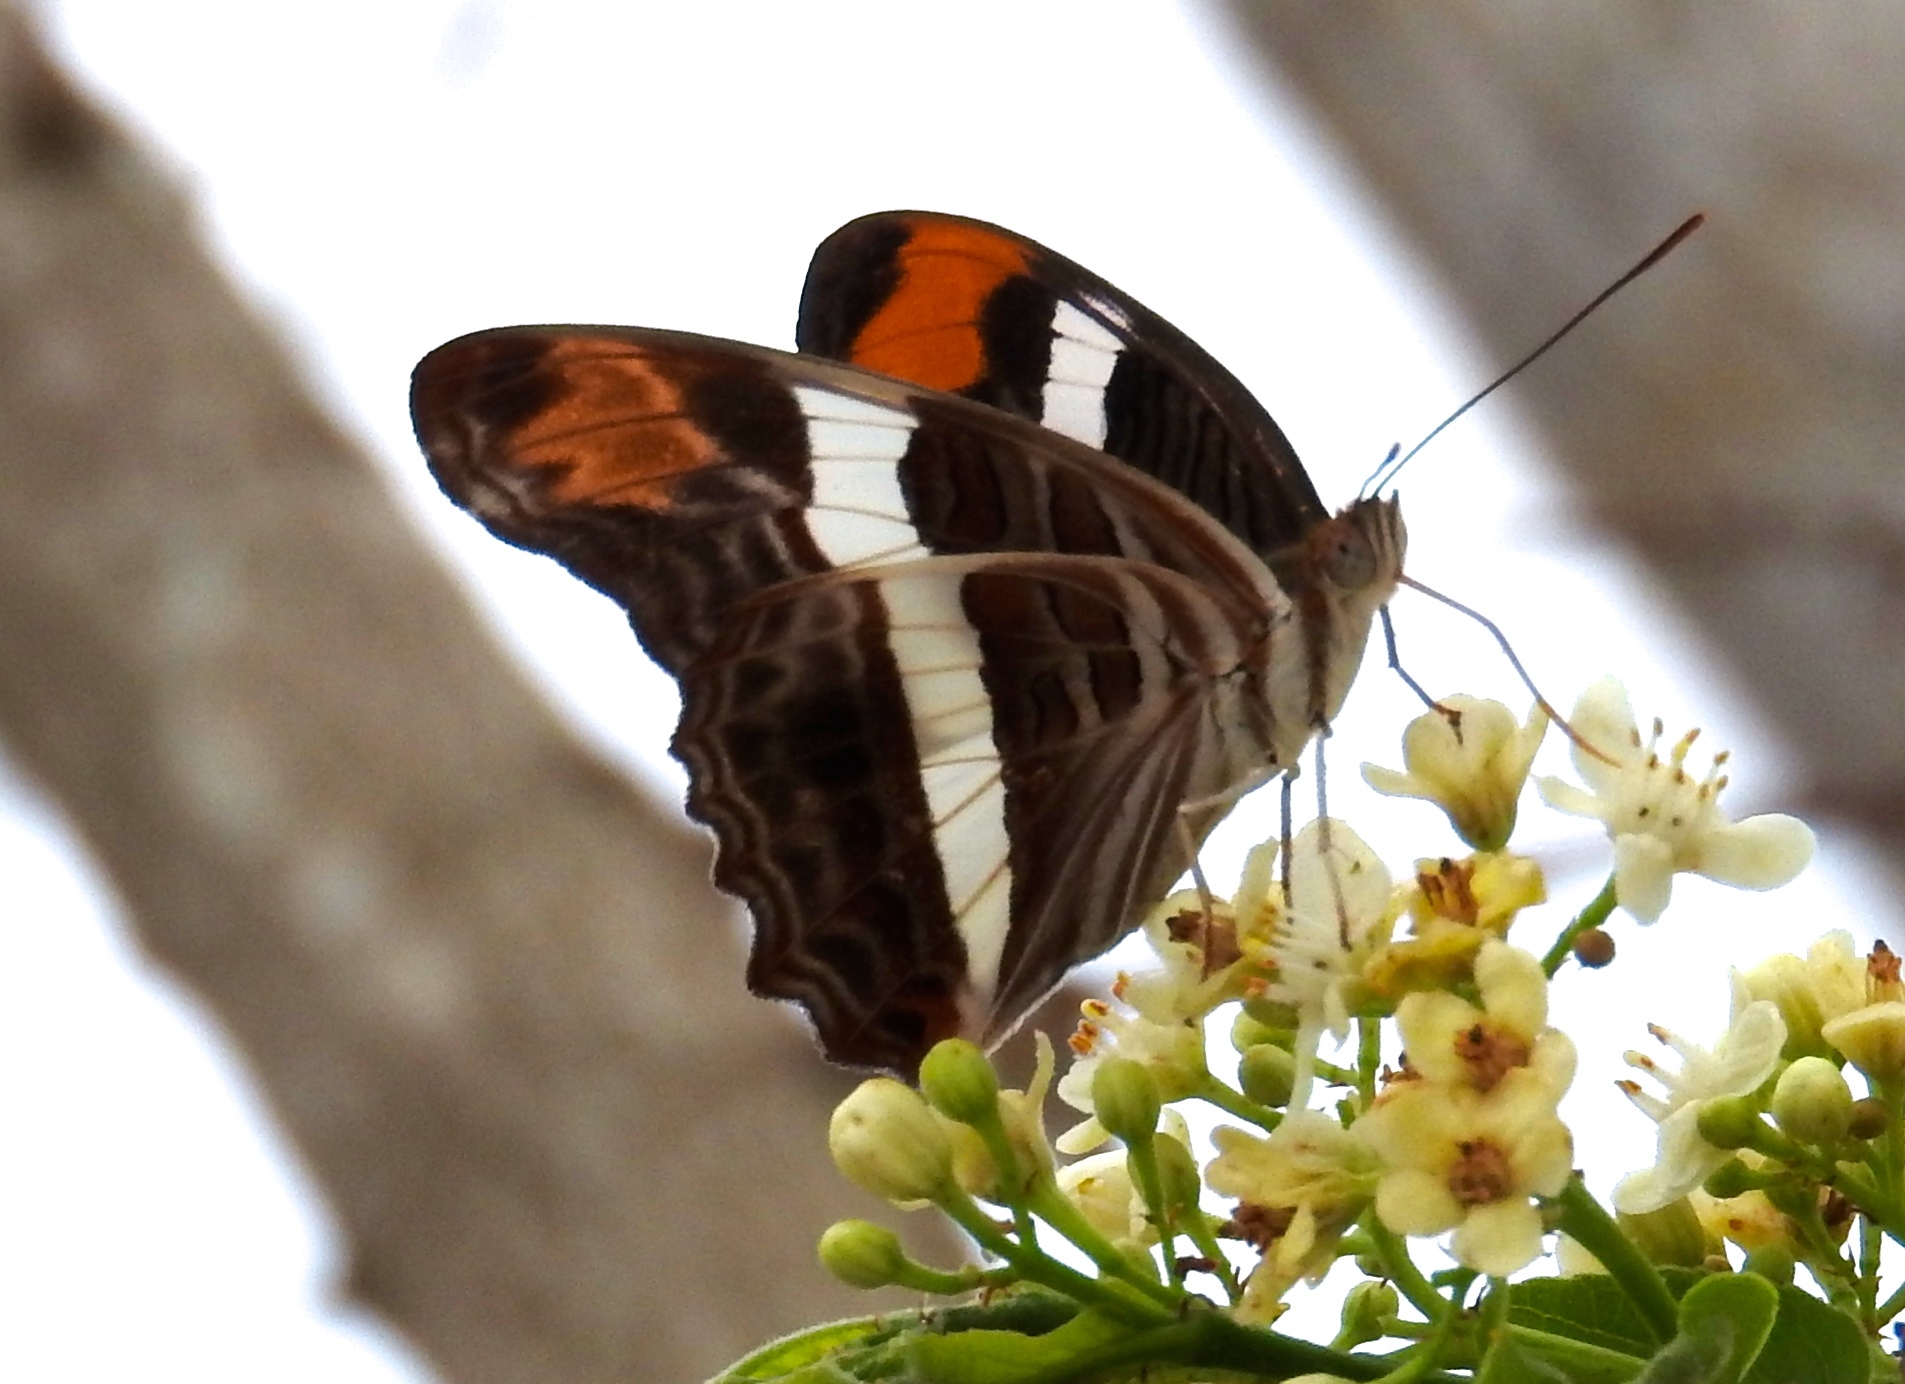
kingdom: Animalia
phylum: Arthropoda
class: Insecta
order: Lepidoptera
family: Nymphalidae
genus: Limenitis
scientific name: Limenitis fessonia
